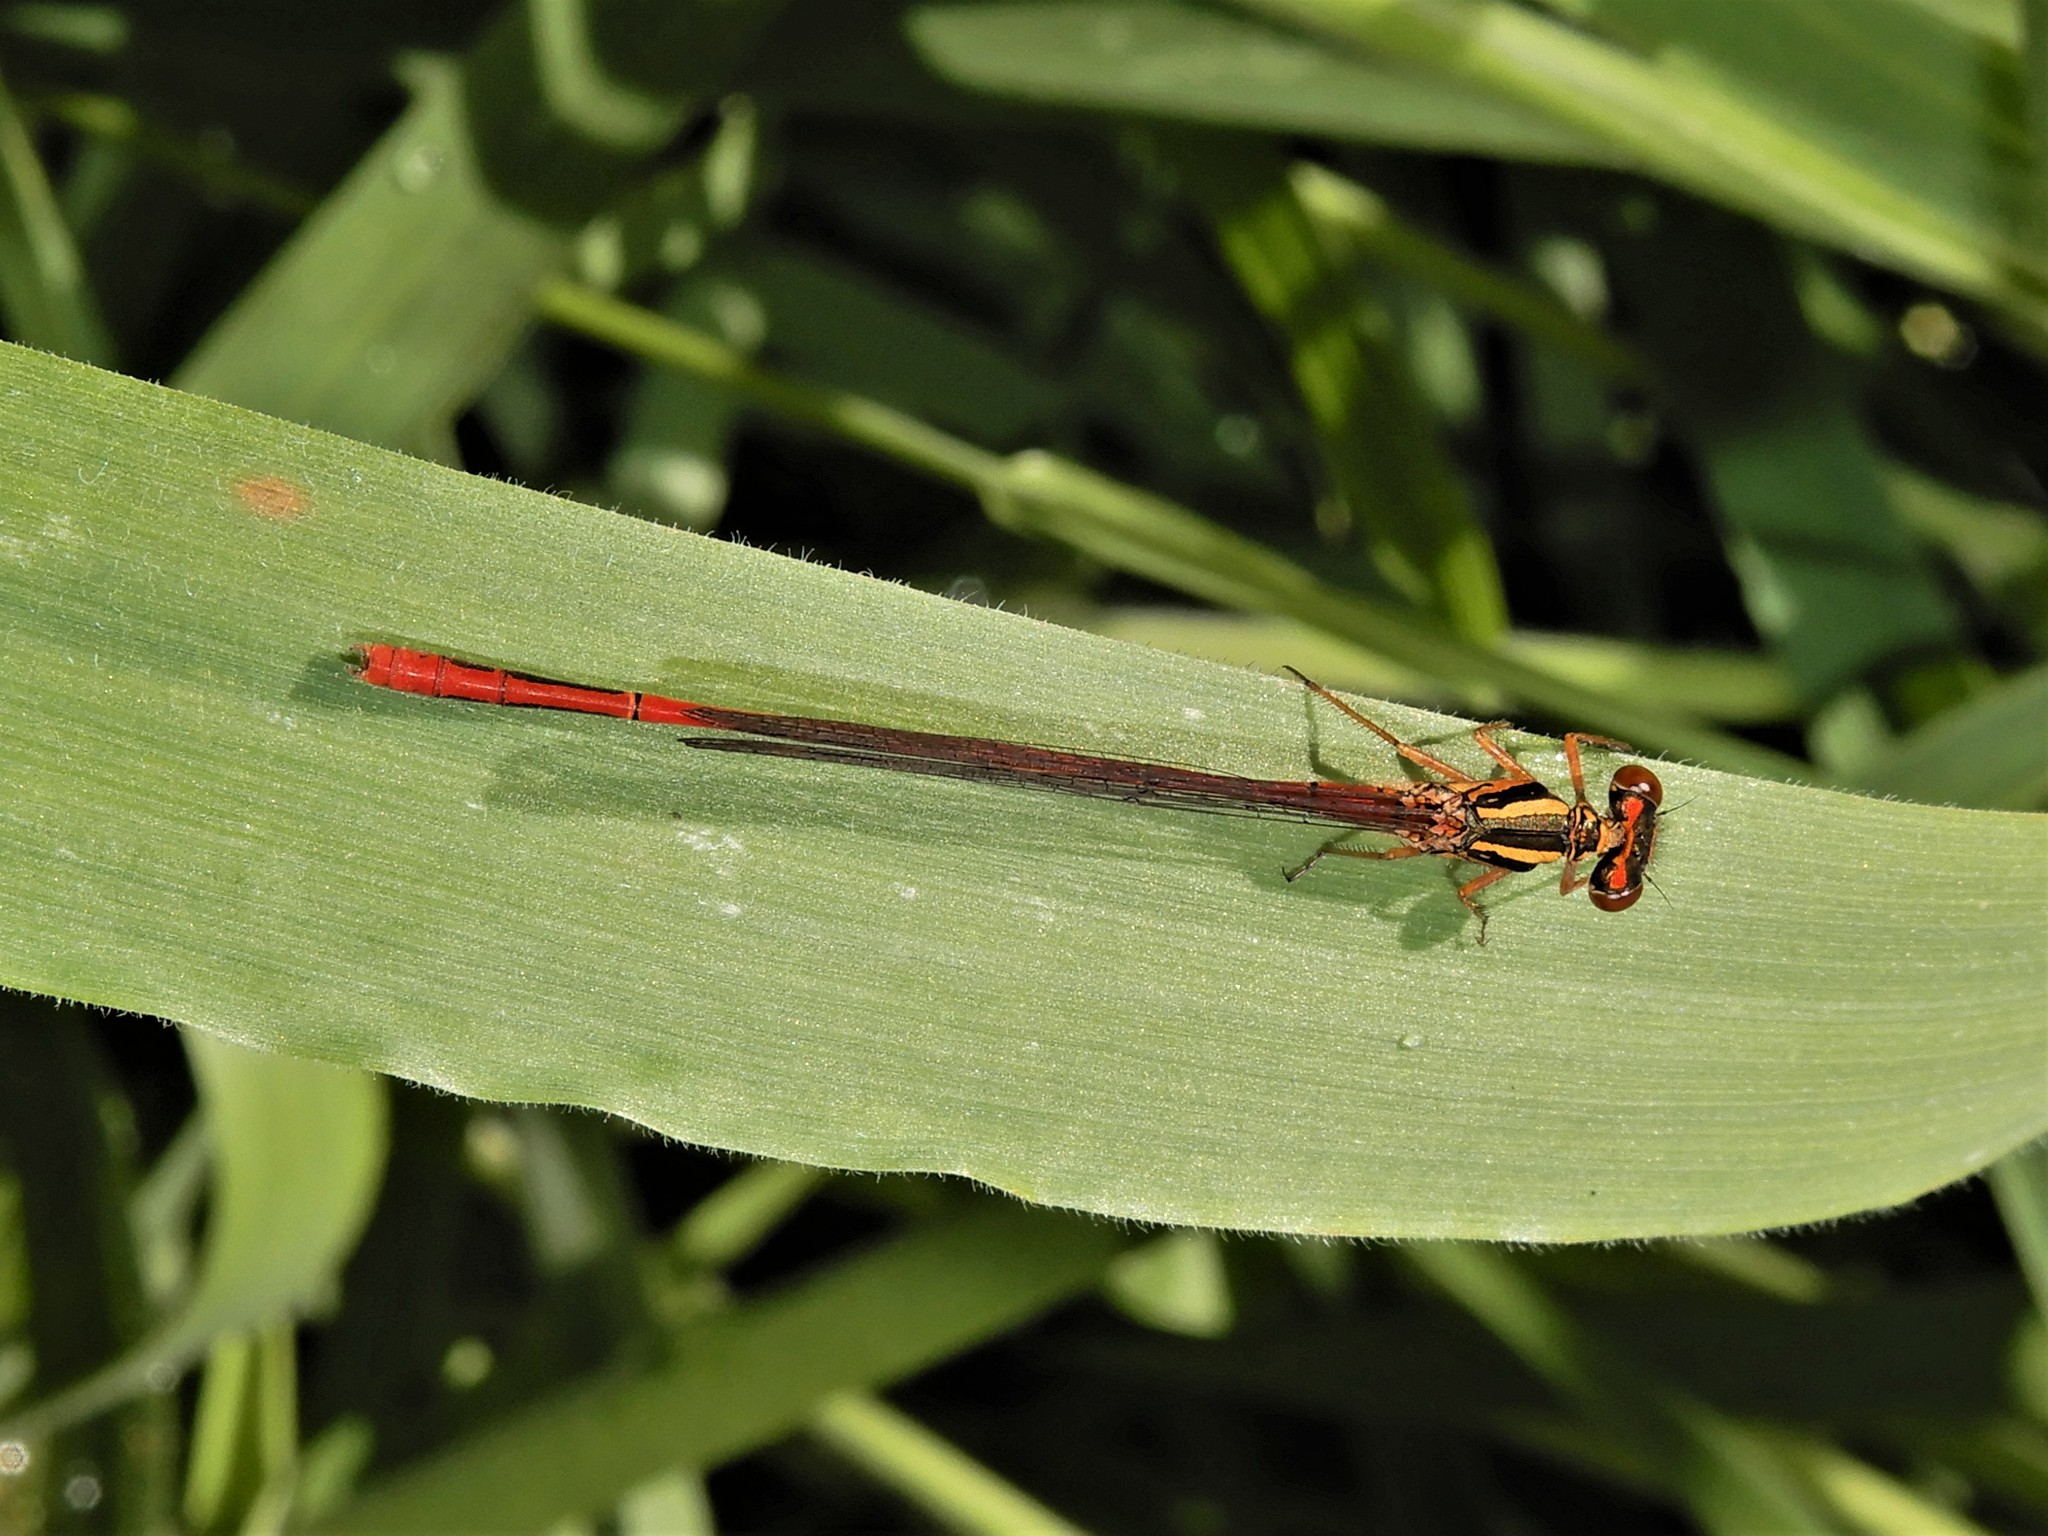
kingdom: Animalia
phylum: Arthropoda
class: Insecta
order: Odonata
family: Coenagrionidae
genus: Xanthocnemis
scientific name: Xanthocnemis zealandica
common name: Common redcoat damselfly
